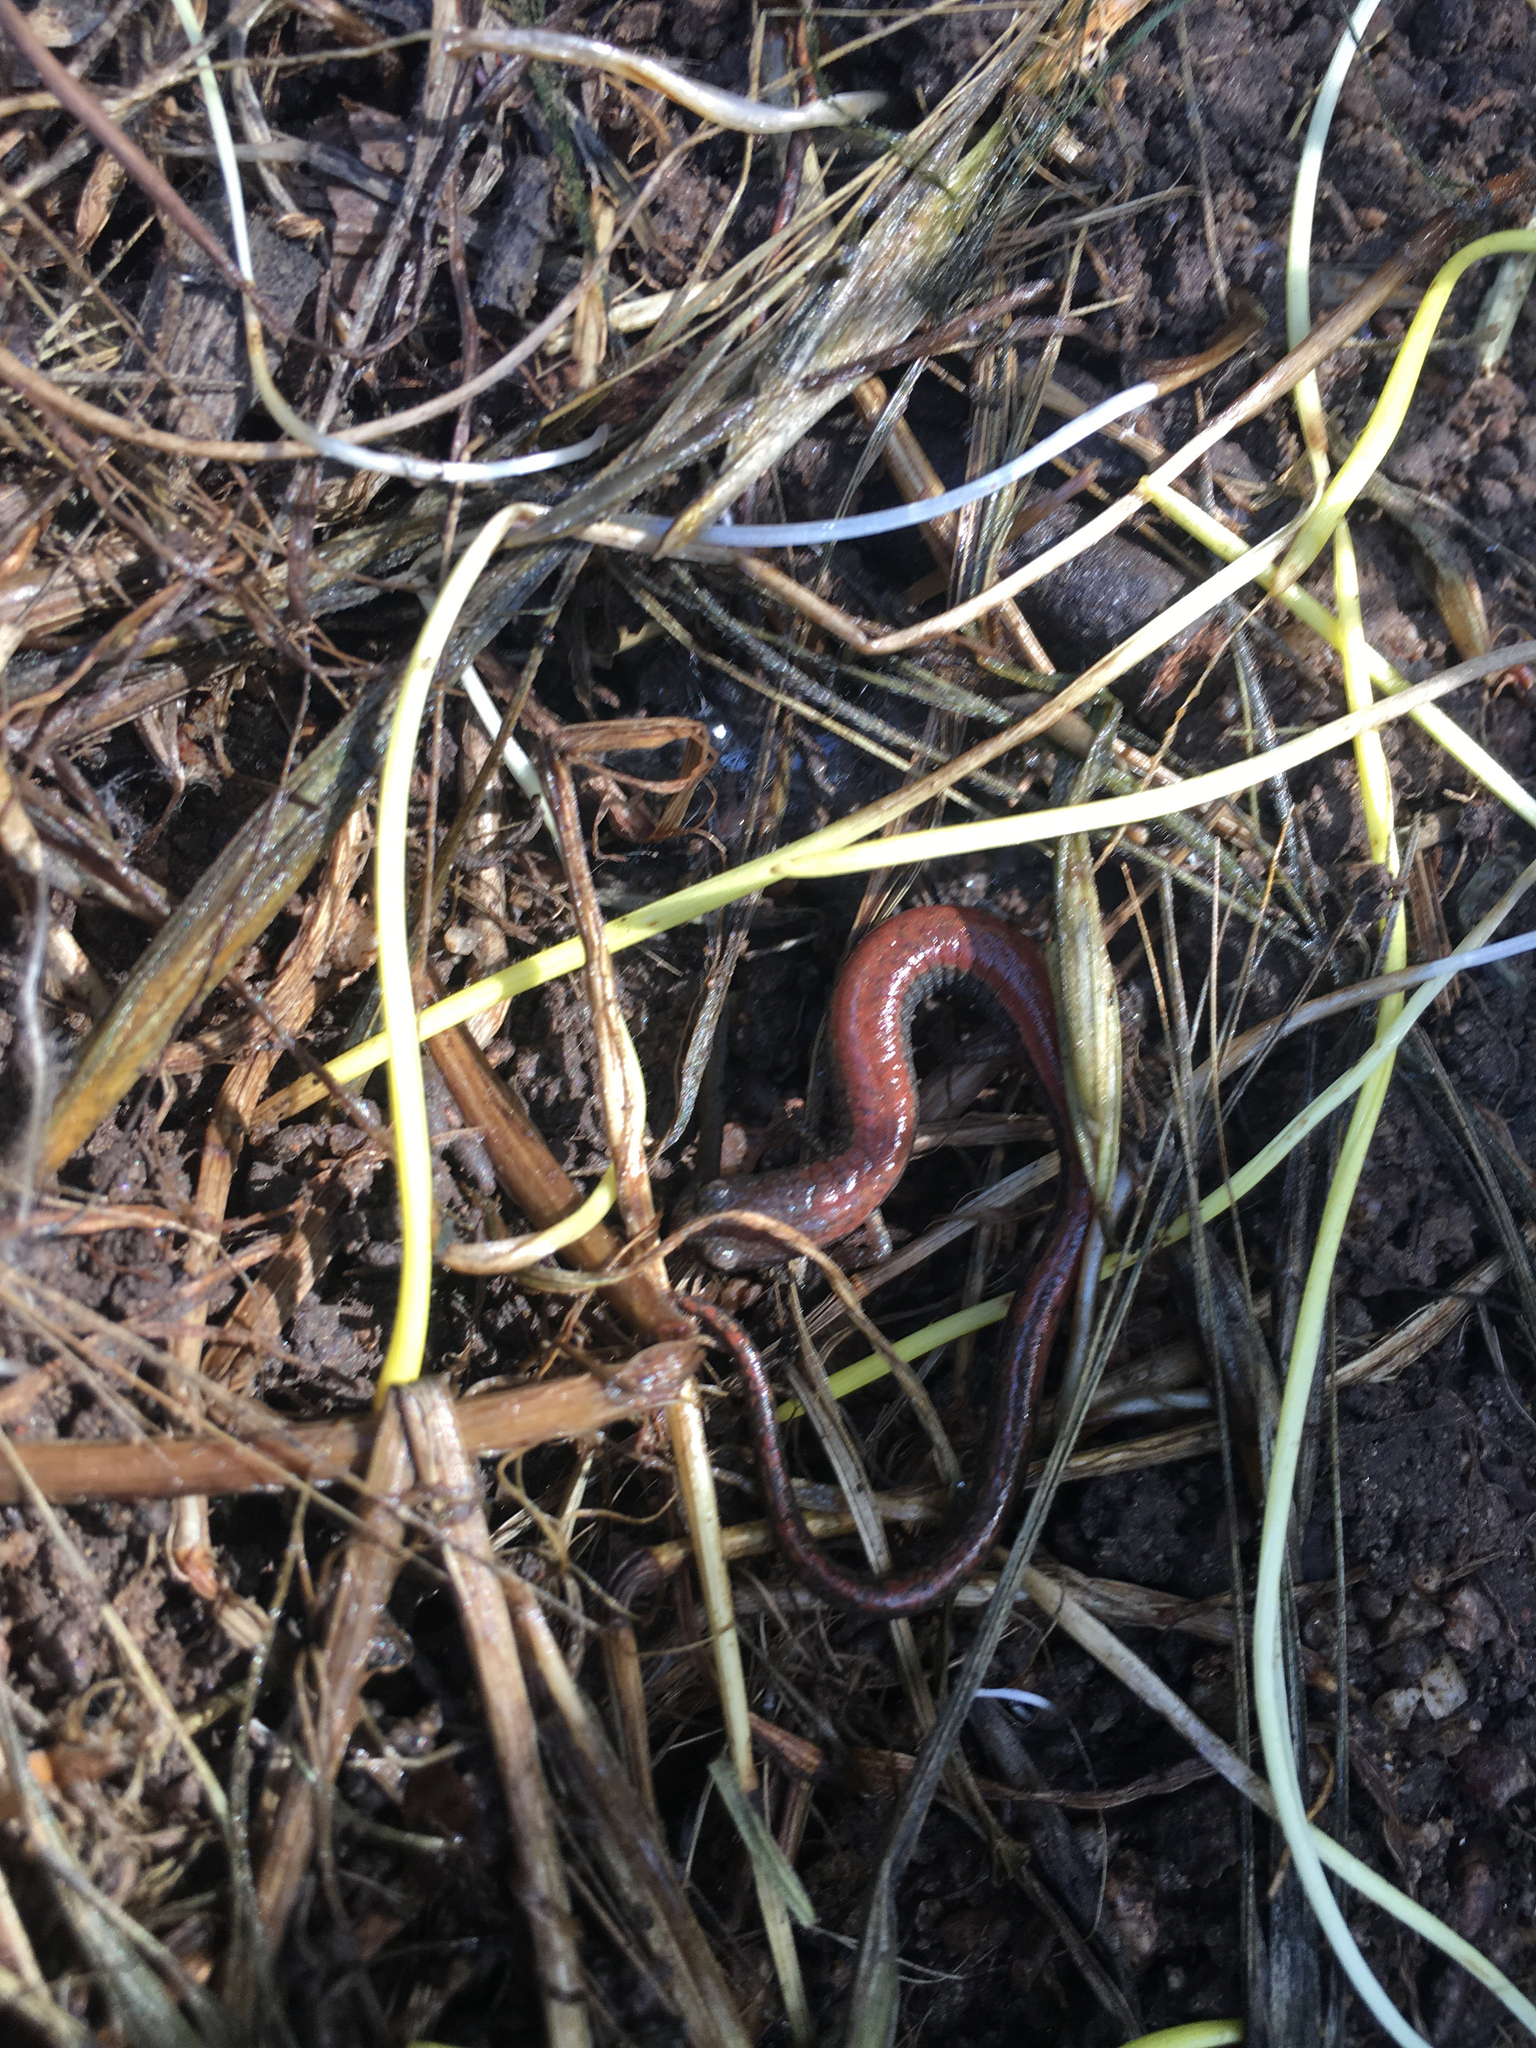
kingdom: Animalia
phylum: Chordata
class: Amphibia
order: Caudata
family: Plethodontidae
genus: Batrachoseps
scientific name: Batrachoseps major
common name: Garden slender salamander
